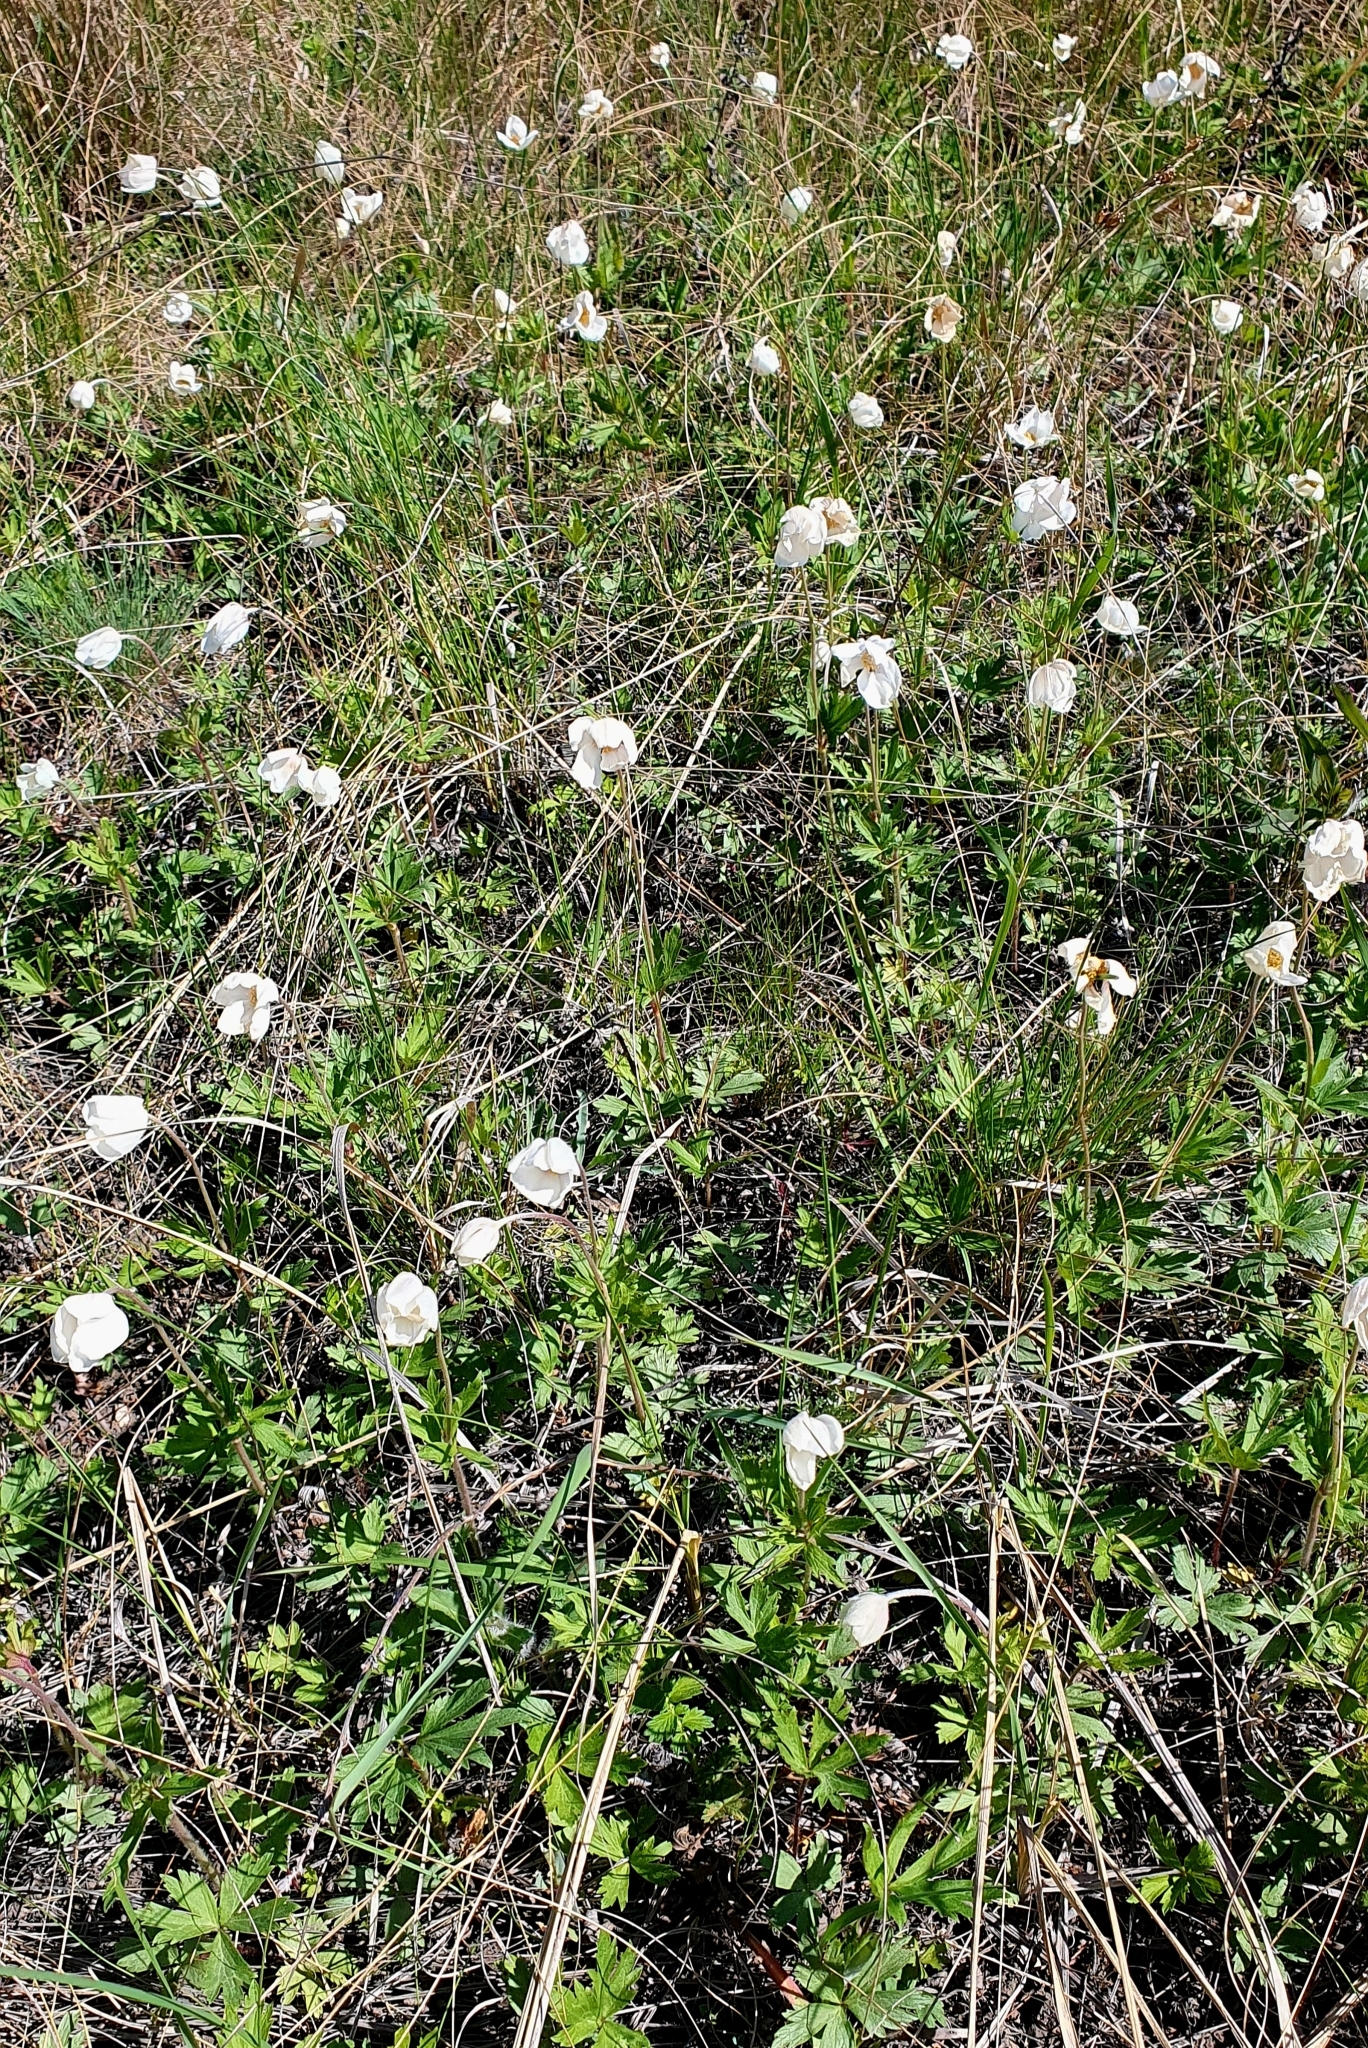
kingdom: Plantae
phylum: Tracheophyta
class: Magnoliopsida
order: Ranunculales
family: Ranunculaceae
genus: Anemone
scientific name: Anemone sylvestris
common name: Snowdrop anemone
